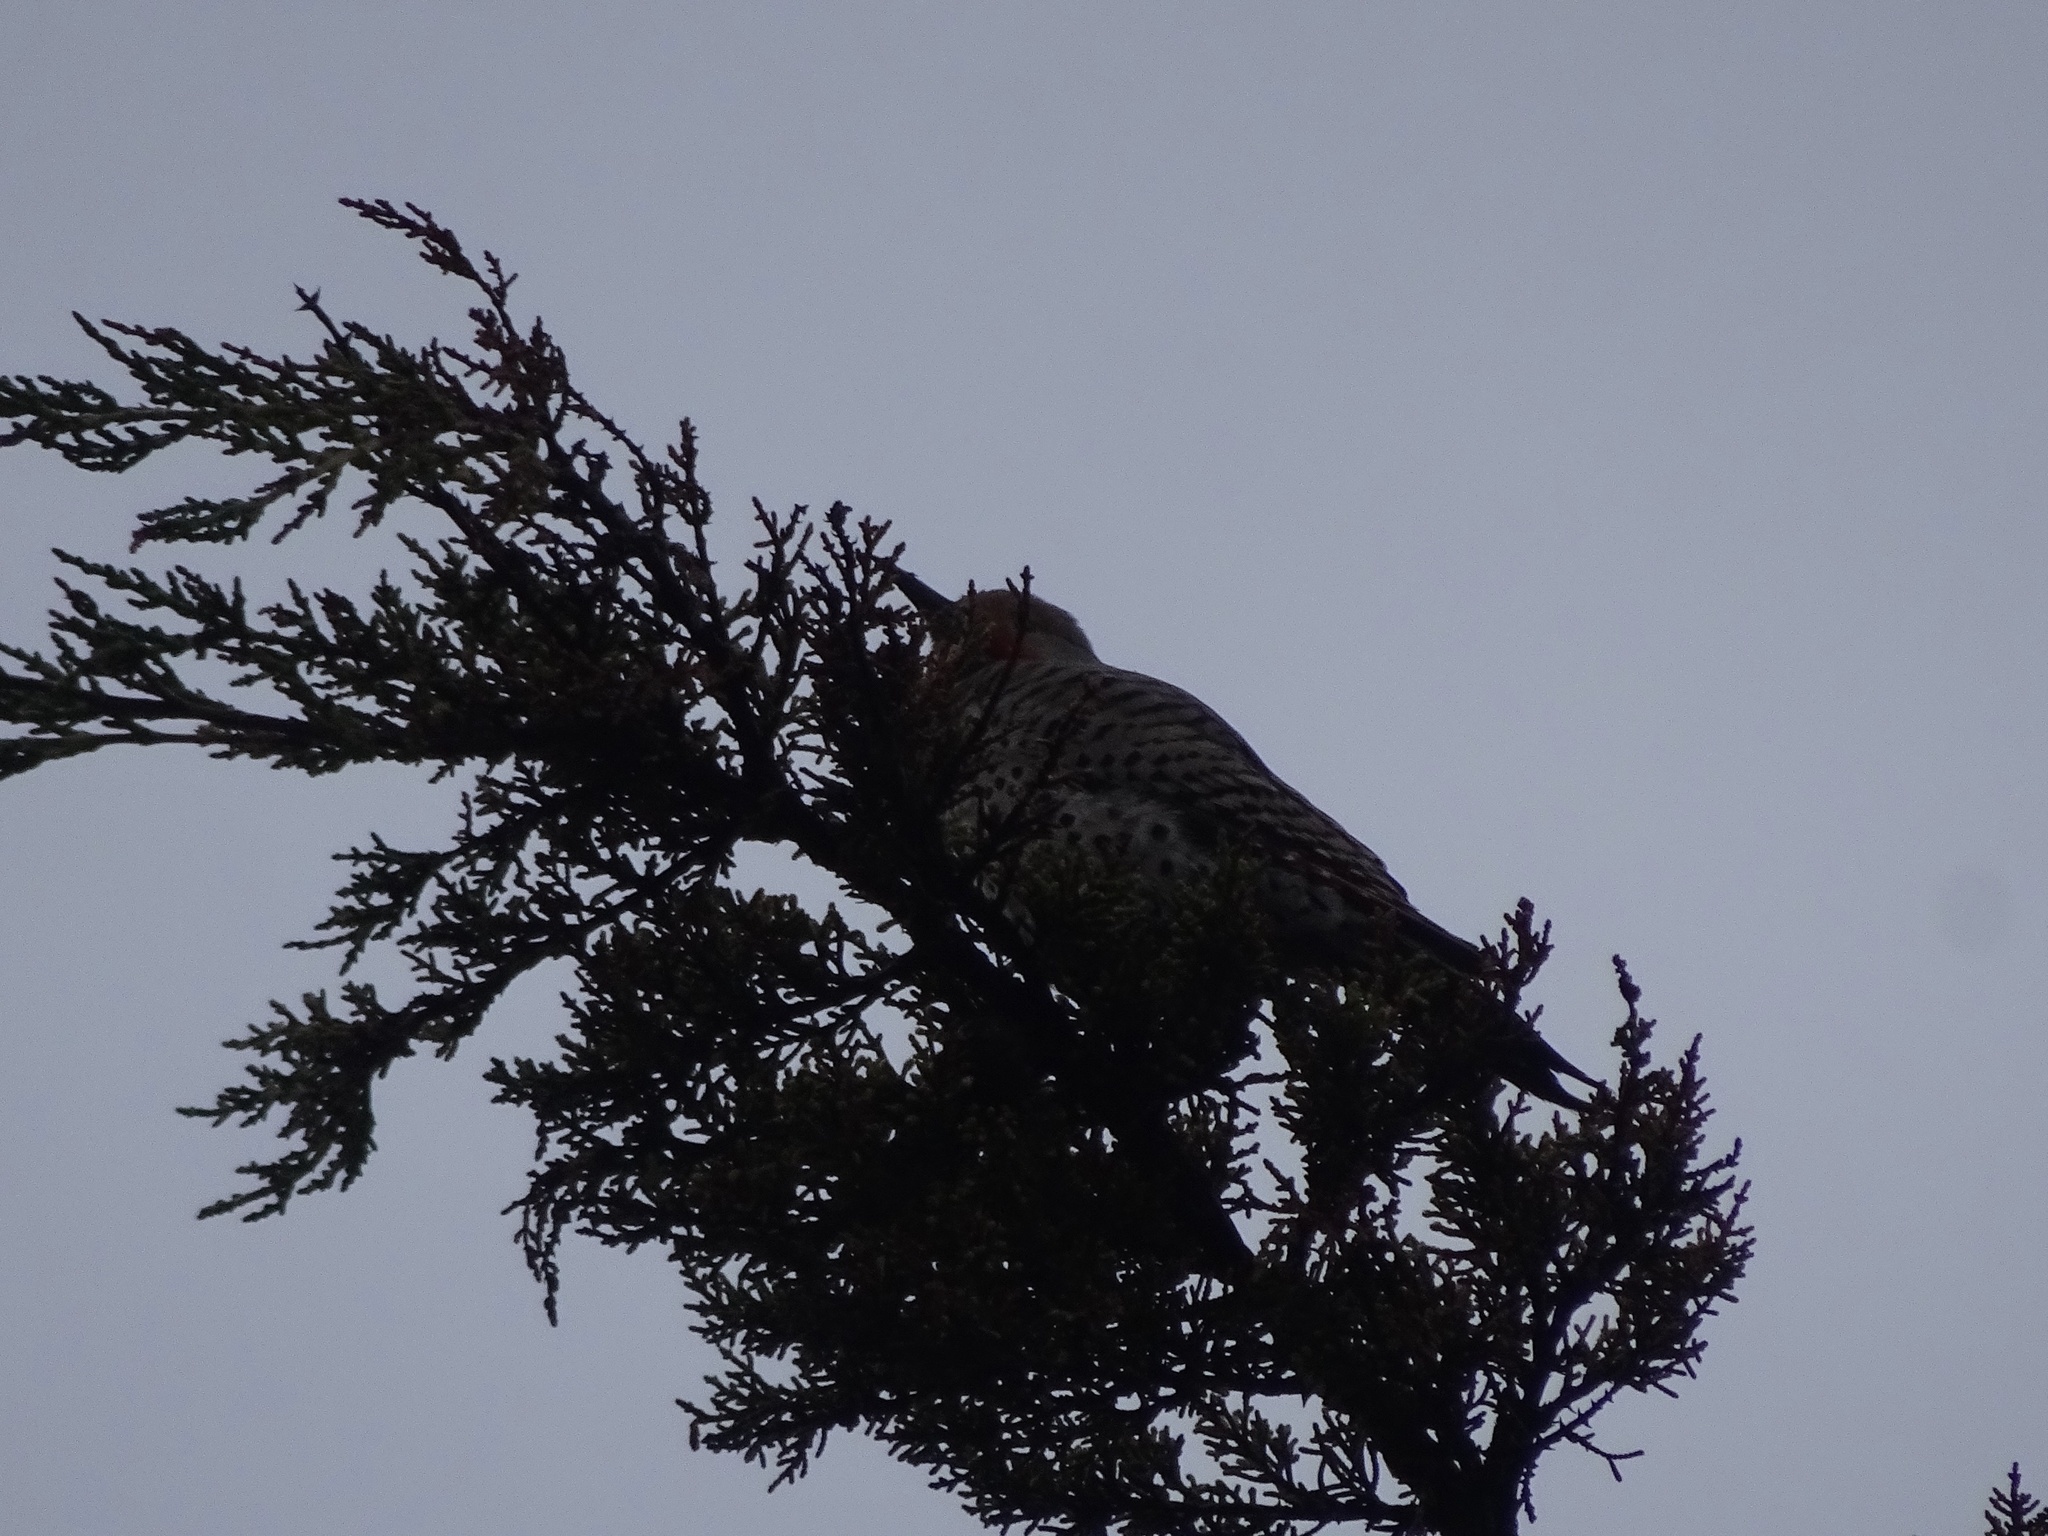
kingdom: Animalia
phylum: Chordata
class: Aves
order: Piciformes
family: Picidae
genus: Colaptes
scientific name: Colaptes auratus
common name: Northern flicker
